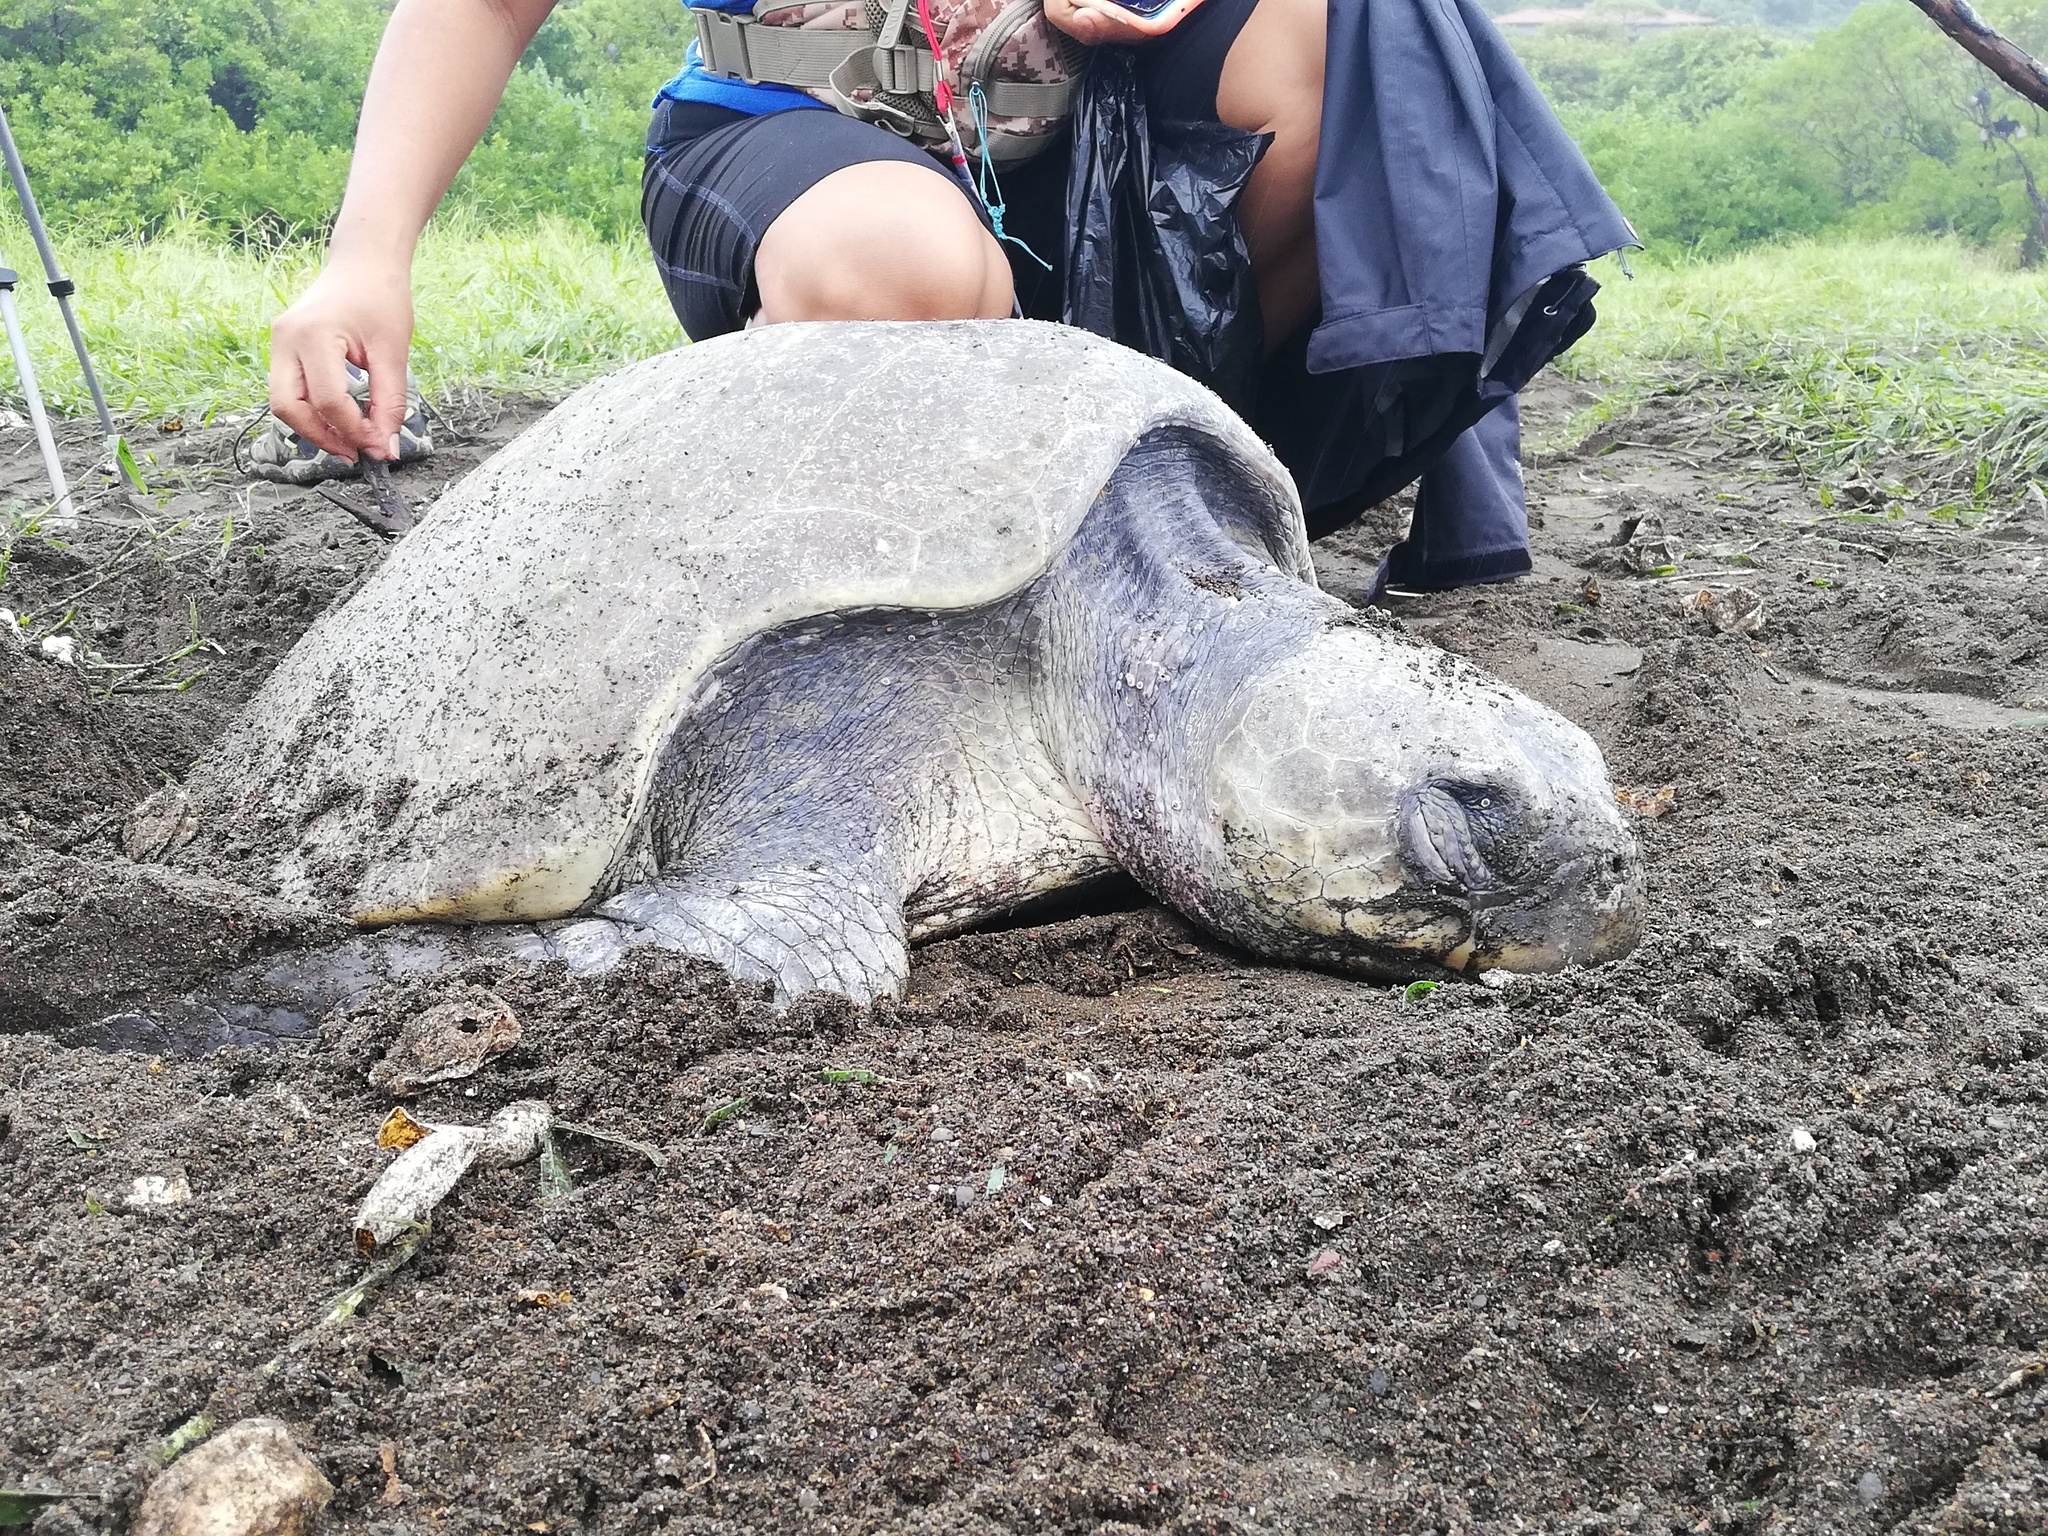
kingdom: Animalia
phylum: Chordata
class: Testudines
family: Cheloniidae
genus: Lepidochelys
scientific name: Lepidochelys olivacea
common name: Olive ridley
